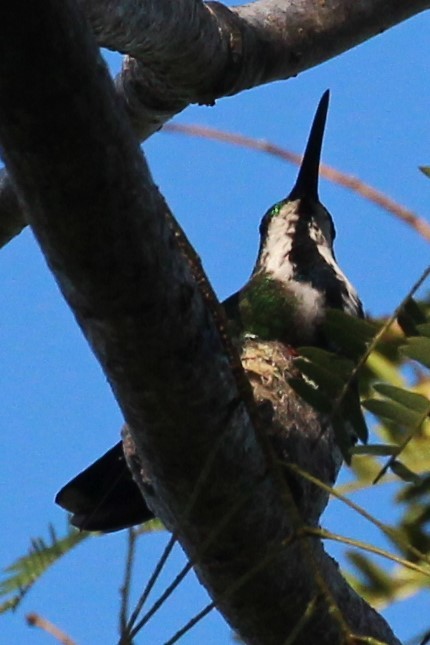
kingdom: Animalia
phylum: Chordata
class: Aves
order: Apodiformes
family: Trochilidae
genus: Anthracothorax
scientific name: Anthracothorax veraguensis
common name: Veraguan mango
